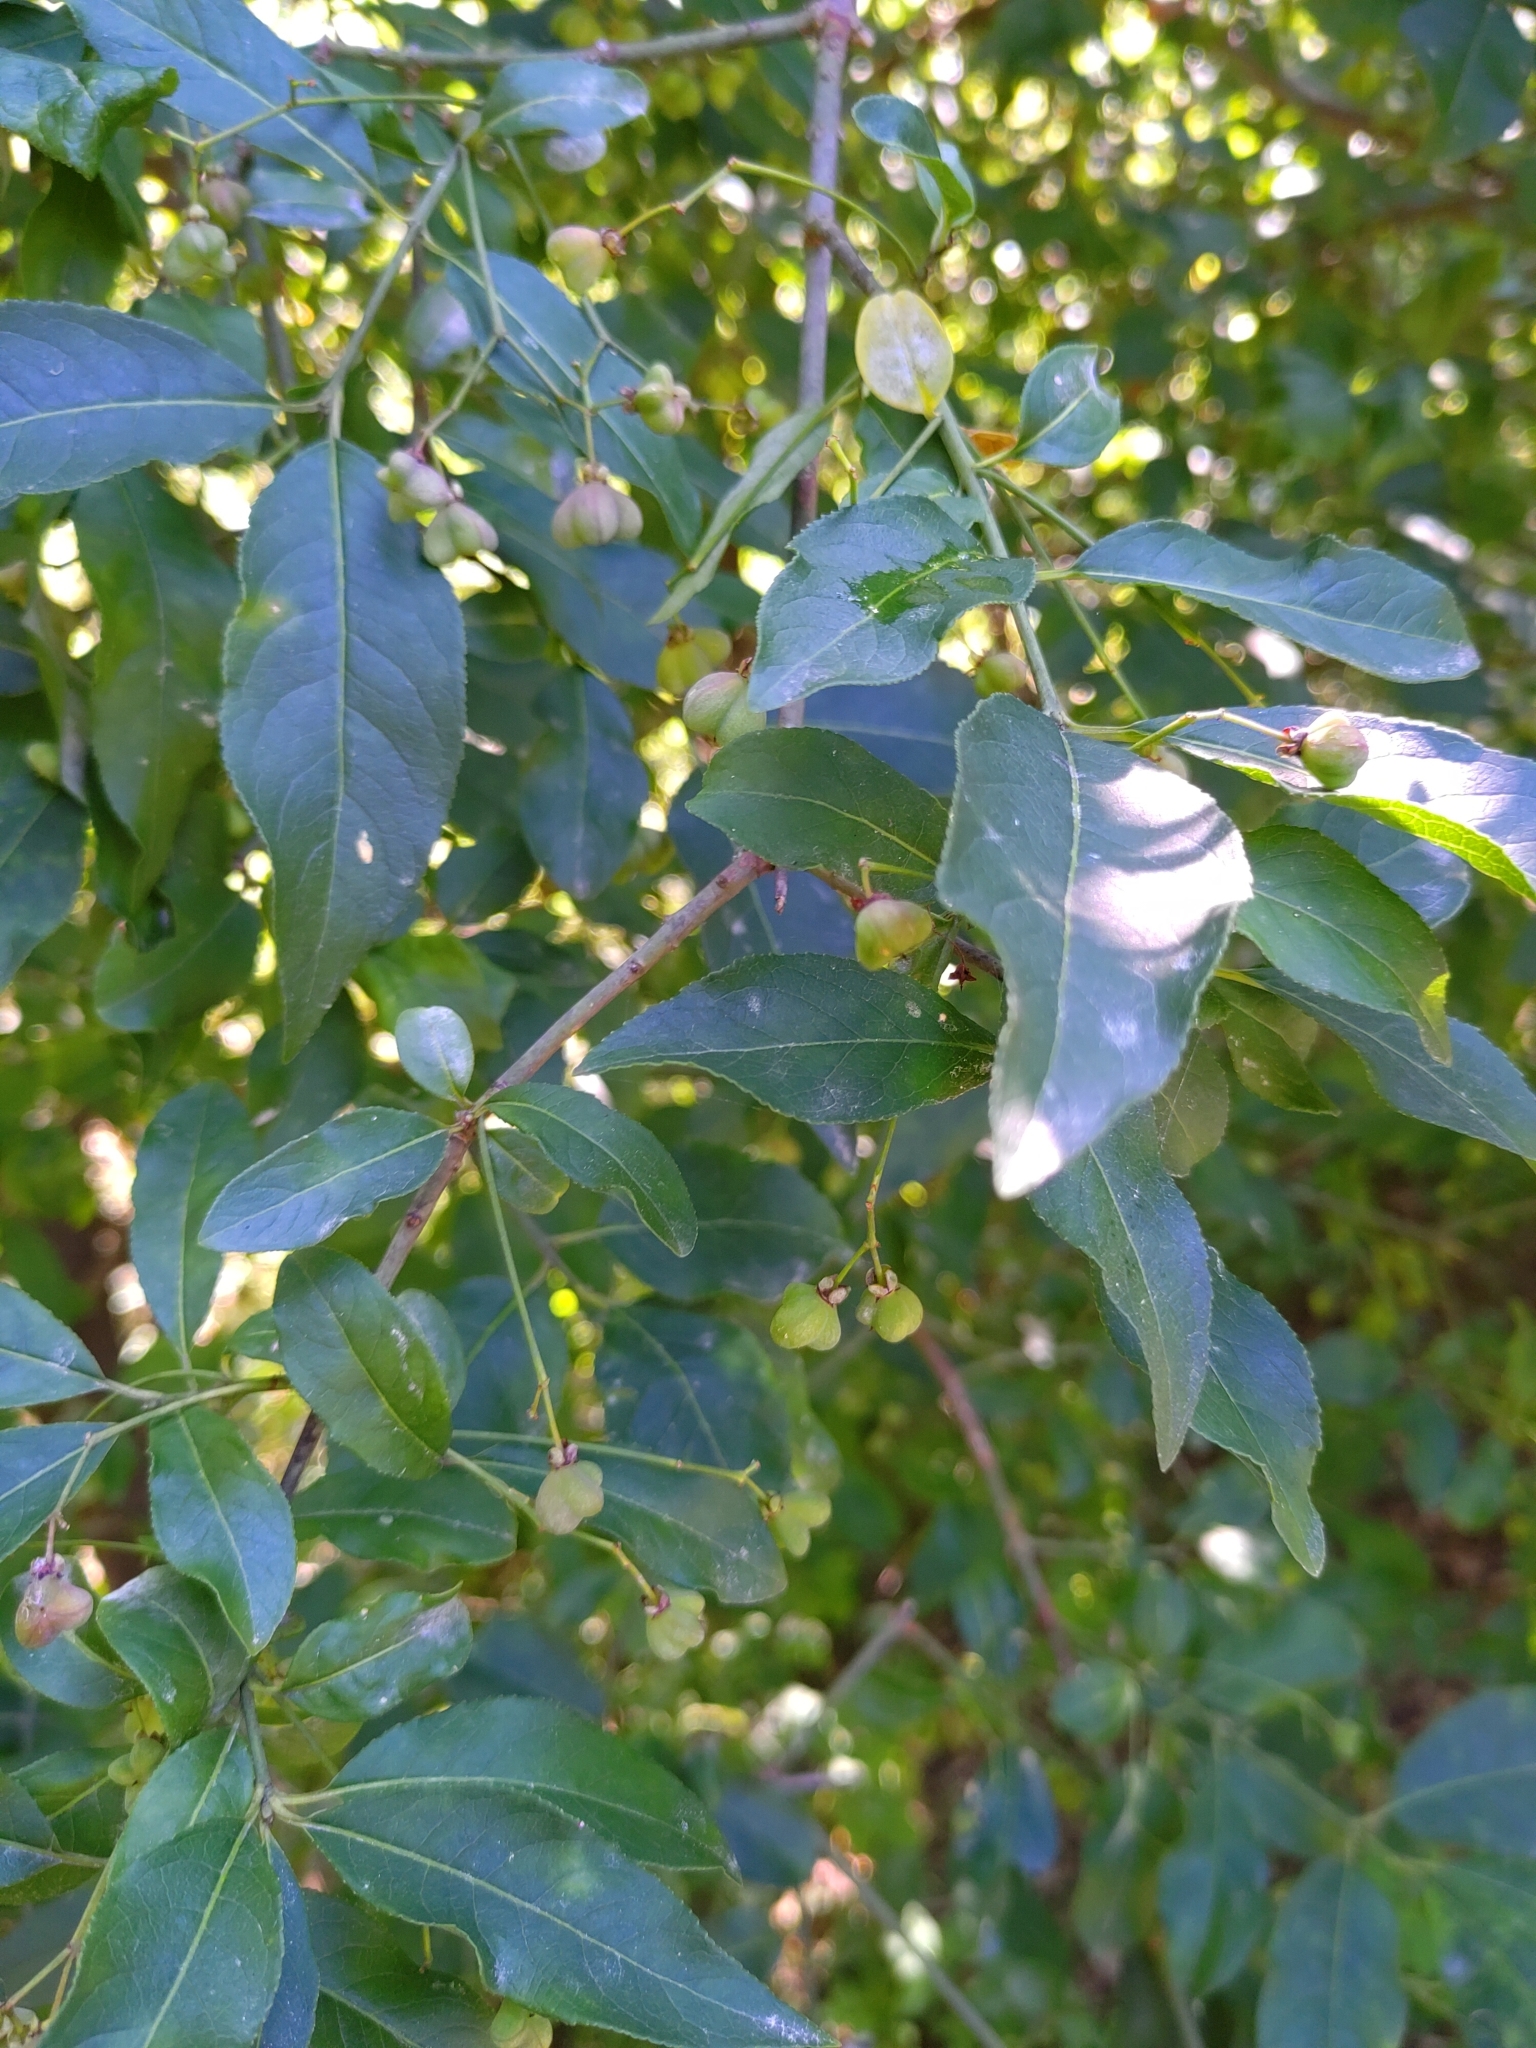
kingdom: Plantae
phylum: Tracheophyta
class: Magnoliopsida
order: Celastrales
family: Celastraceae
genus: Euonymus
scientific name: Euonymus europaeus
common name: Spindle
